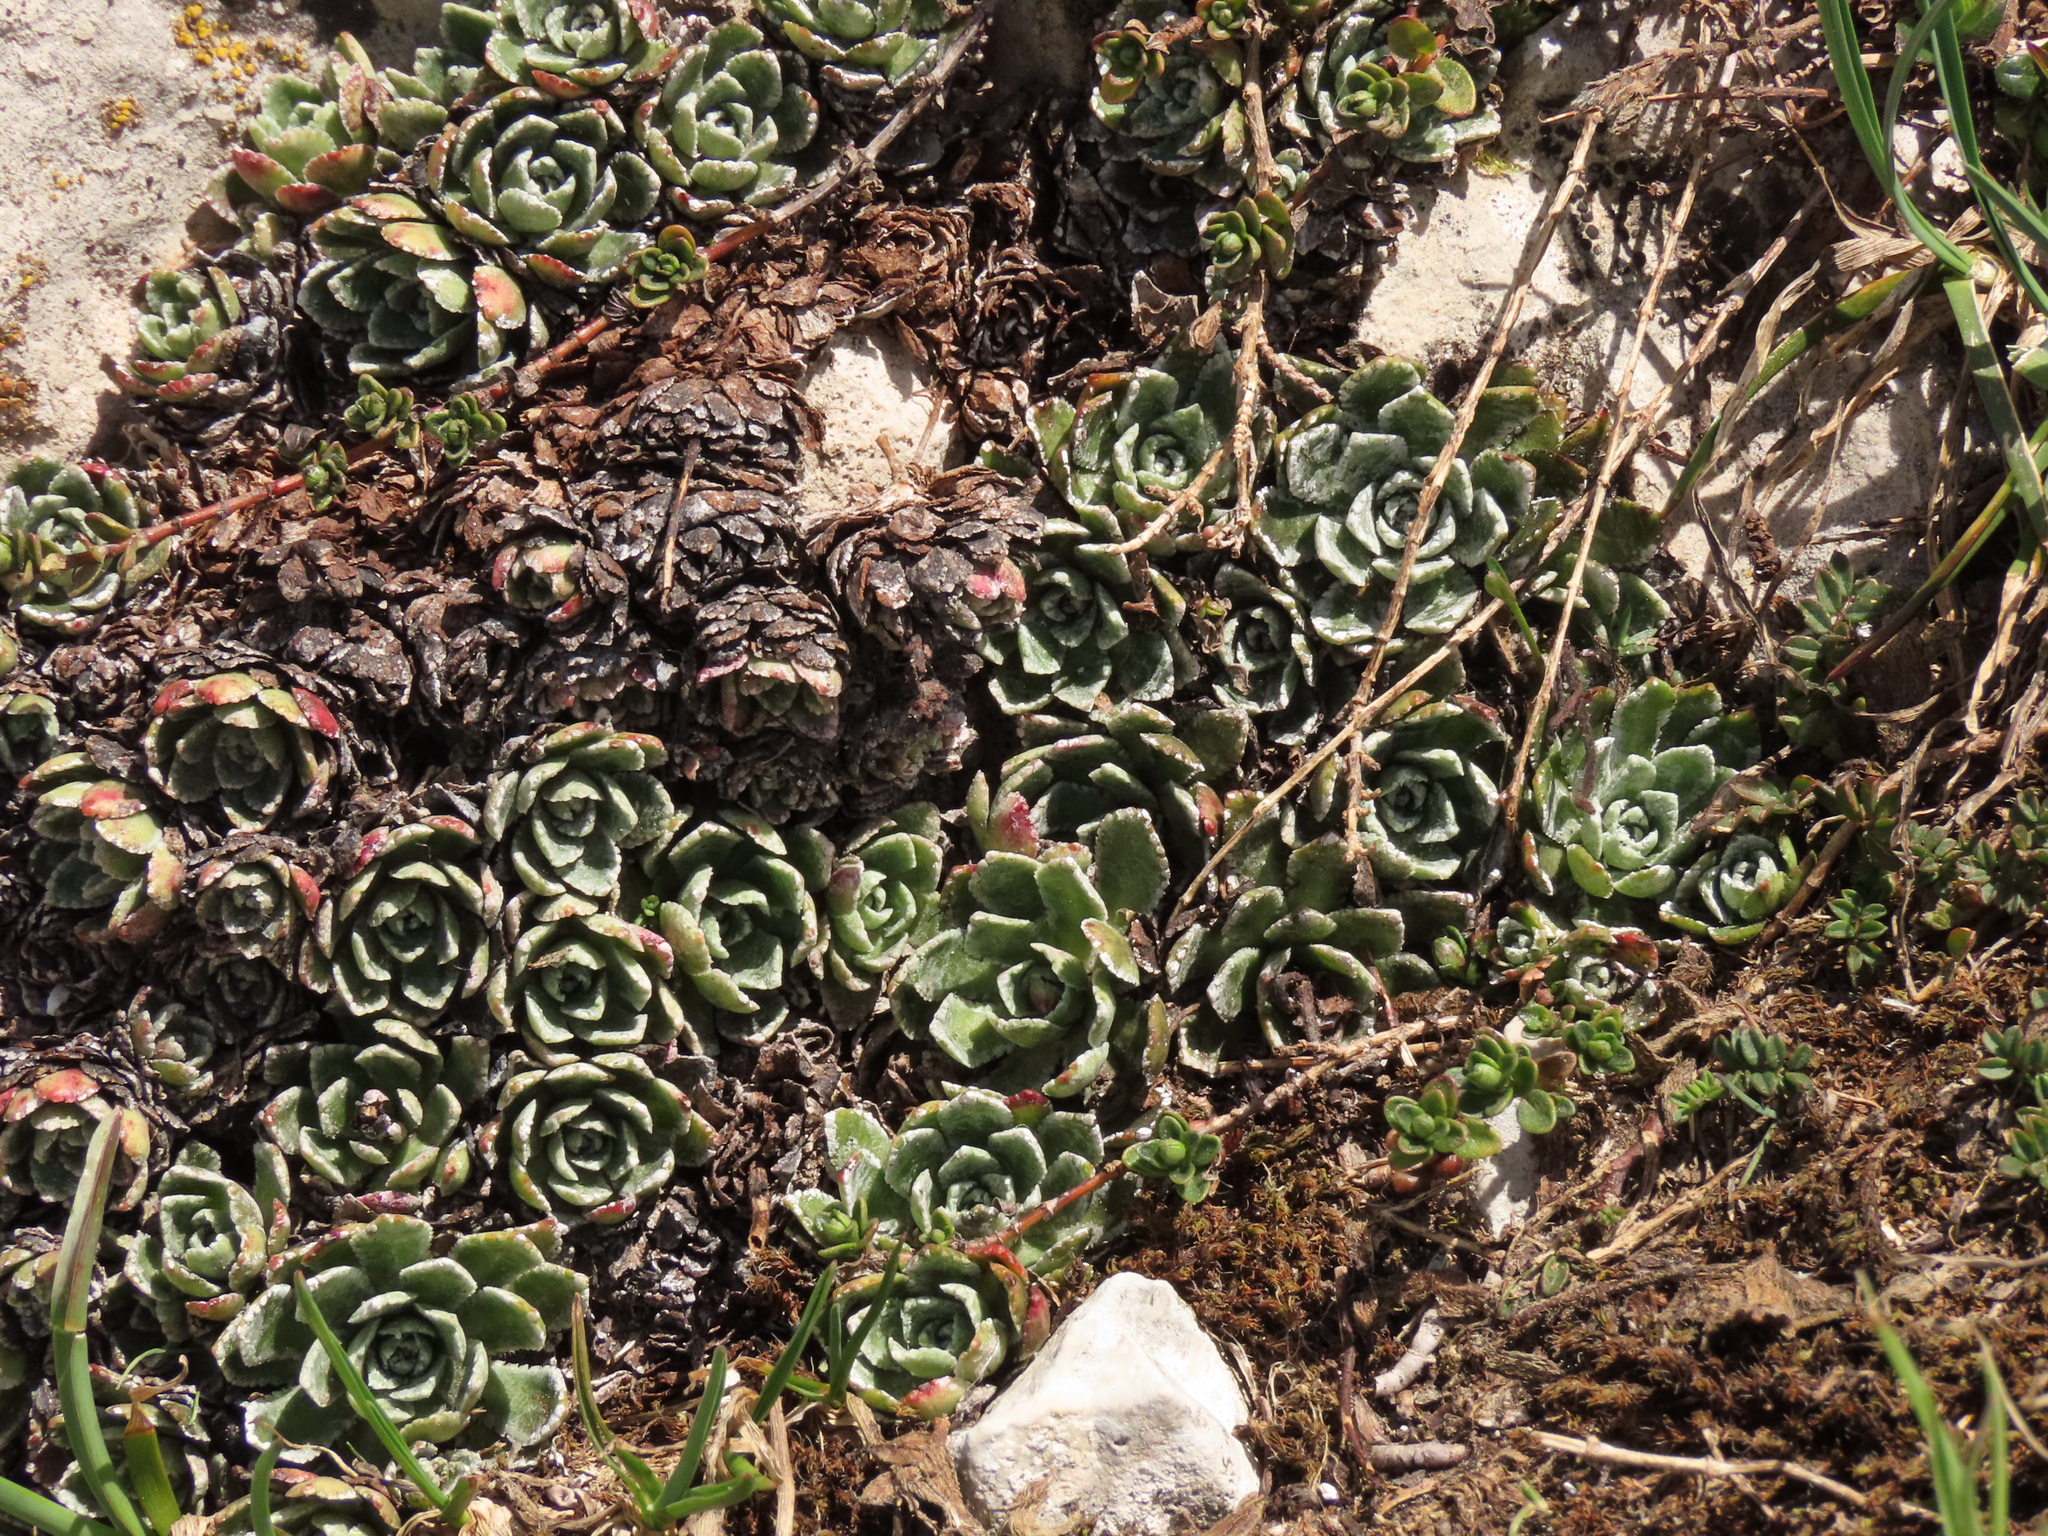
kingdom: Plantae
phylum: Tracheophyta
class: Magnoliopsida
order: Saxifragales
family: Saxifragaceae
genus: Saxifraga
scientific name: Saxifraga paniculata
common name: Livelong saxifrage
